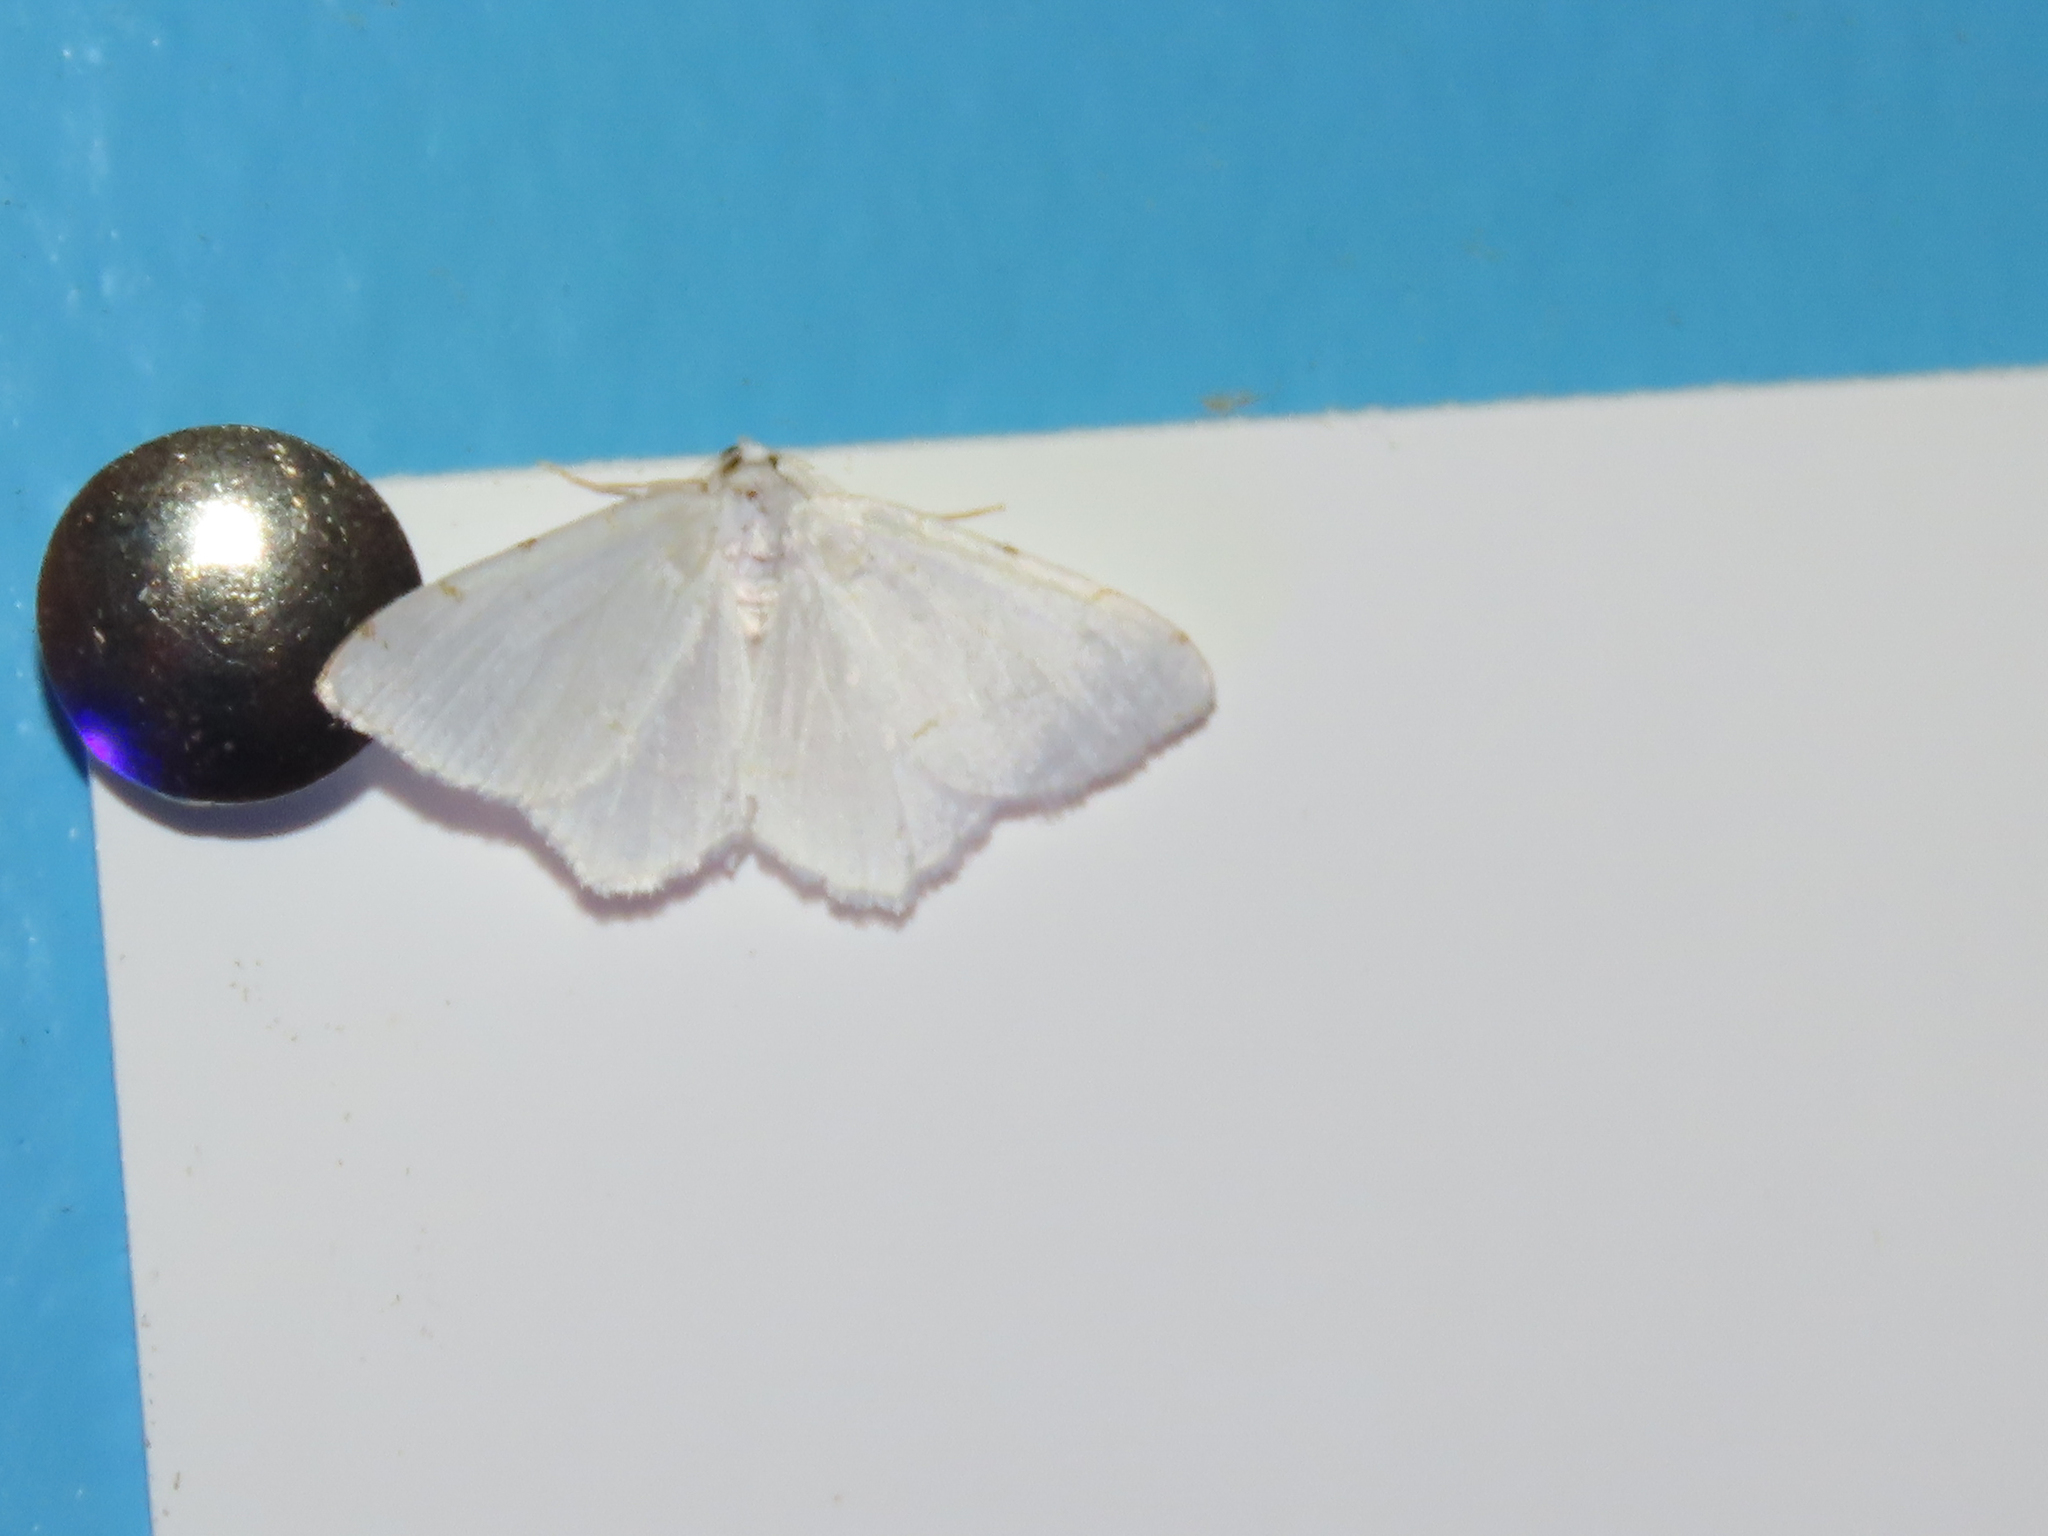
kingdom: Animalia
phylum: Arthropoda
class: Insecta
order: Lepidoptera
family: Geometridae
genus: Macaria
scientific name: Macaria pustularia
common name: Lesser maple spanworm moth
